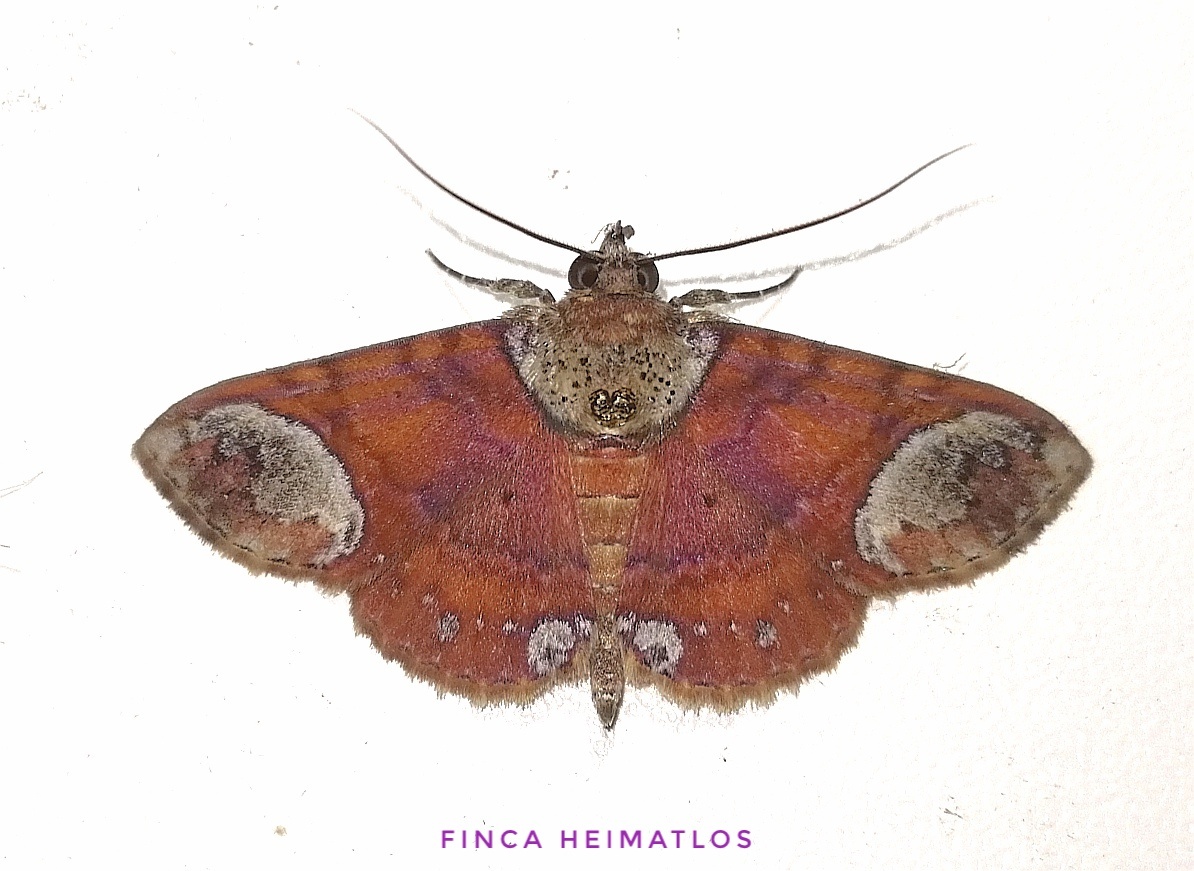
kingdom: Animalia
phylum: Arthropoda
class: Insecta
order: Lepidoptera
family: Erebidae
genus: Antiblemma
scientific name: Antiblemma trogocycla
